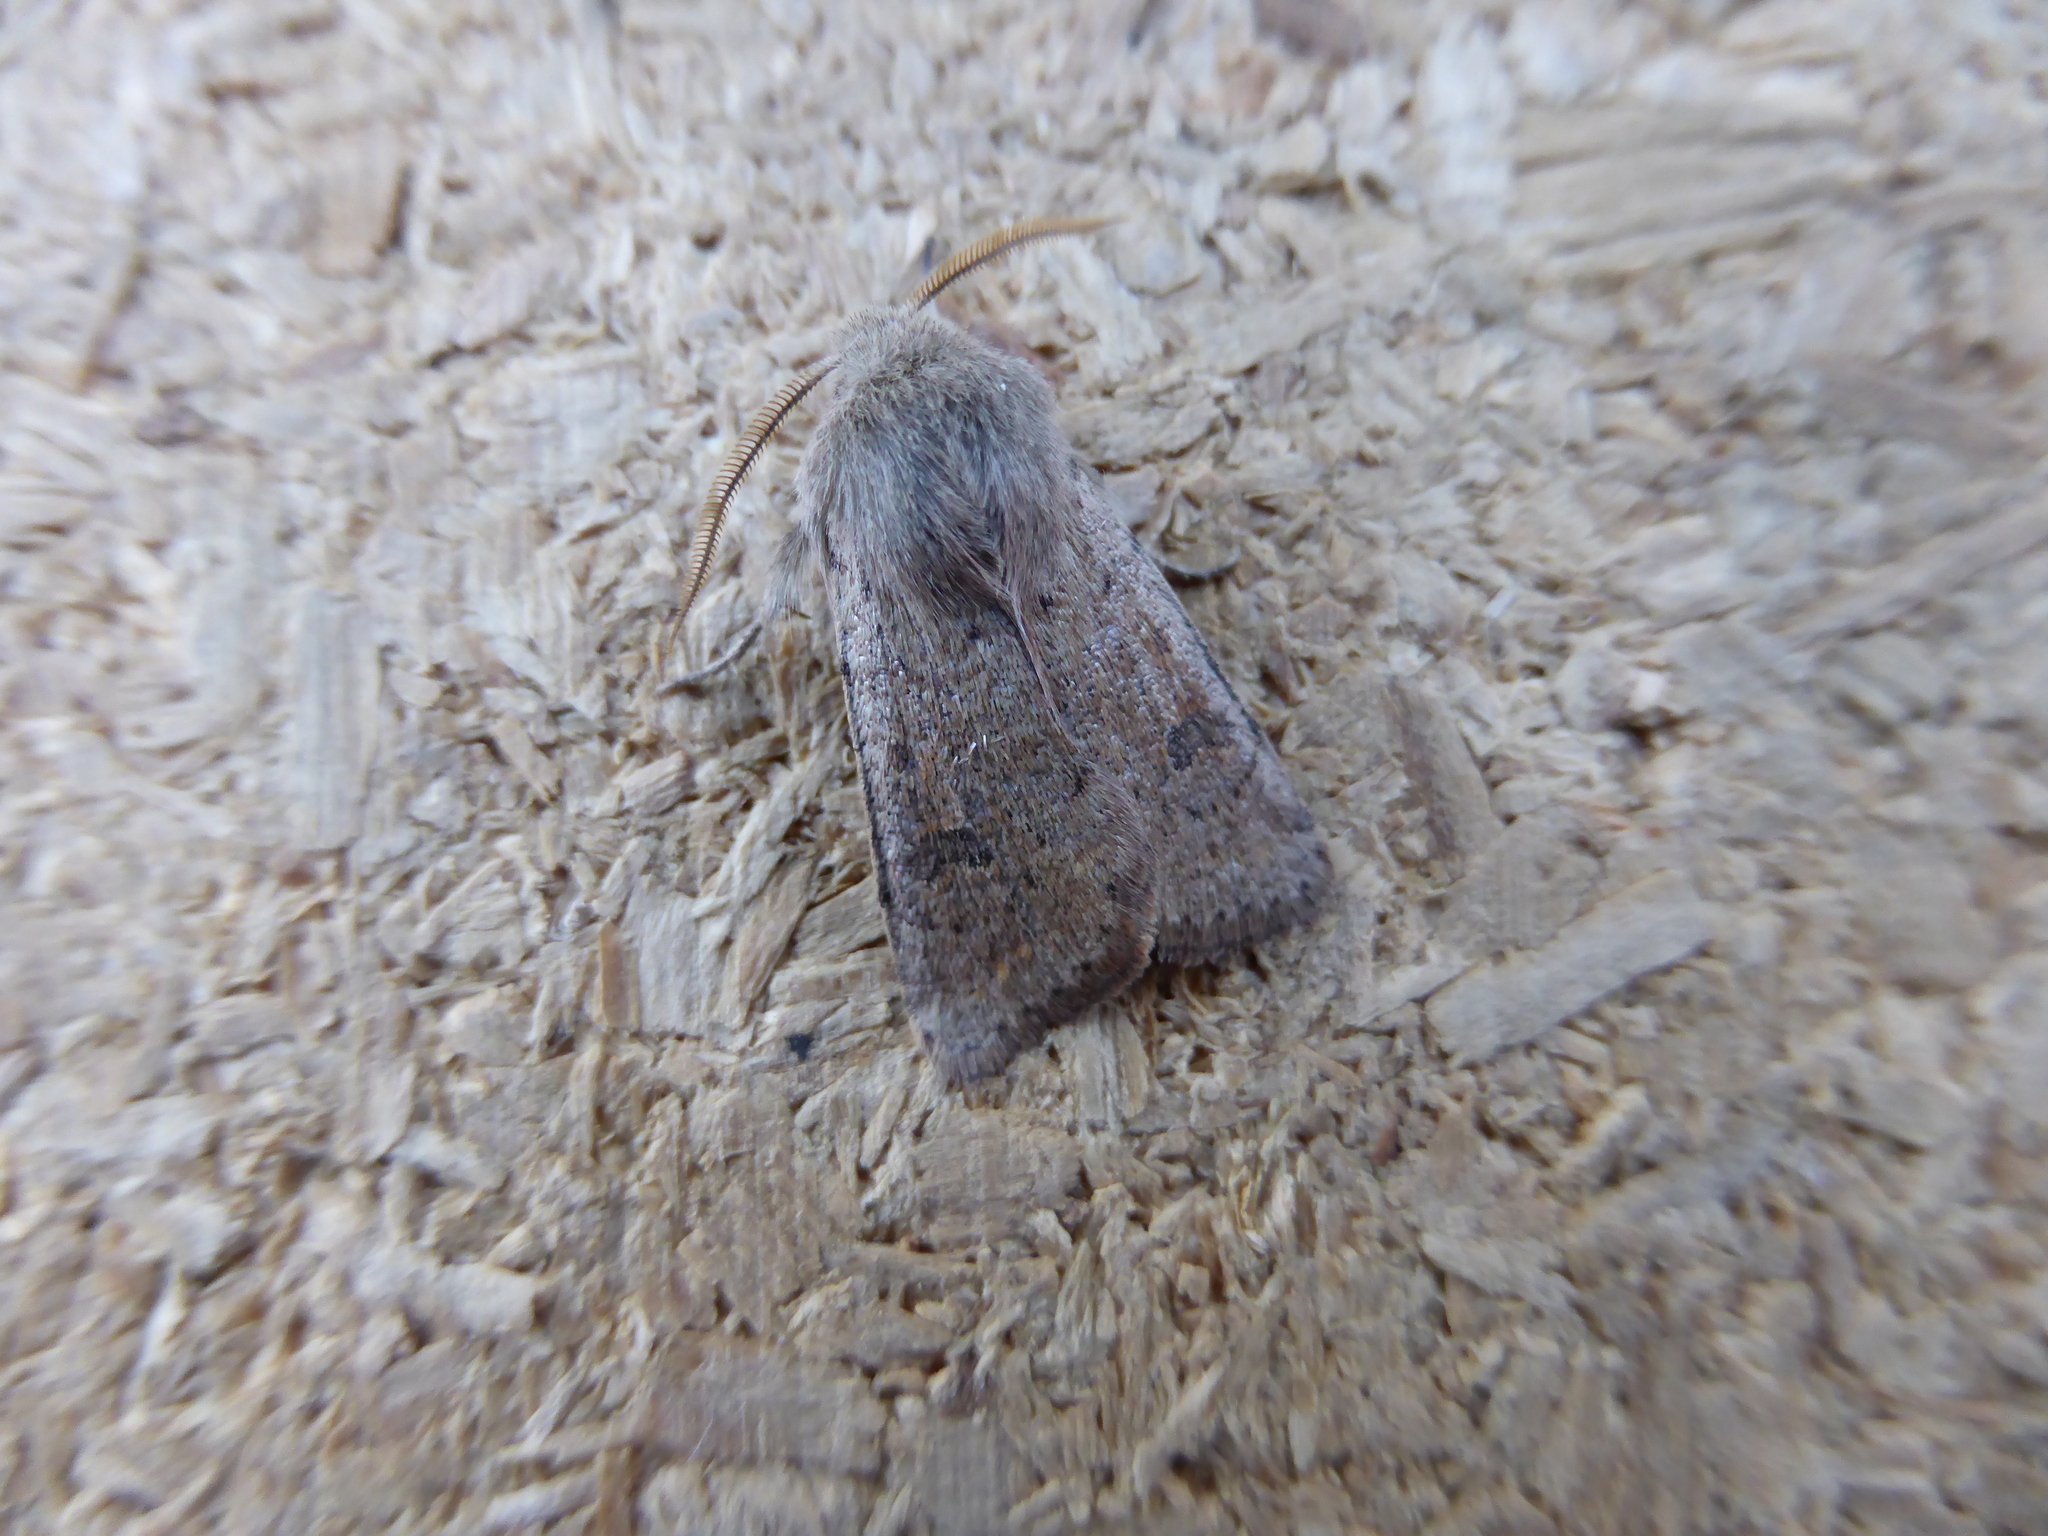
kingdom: Animalia
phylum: Arthropoda
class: Insecta
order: Lepidoptera
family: Noctuidae
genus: Orthosia
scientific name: Orthosia cruda
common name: Small quaker
